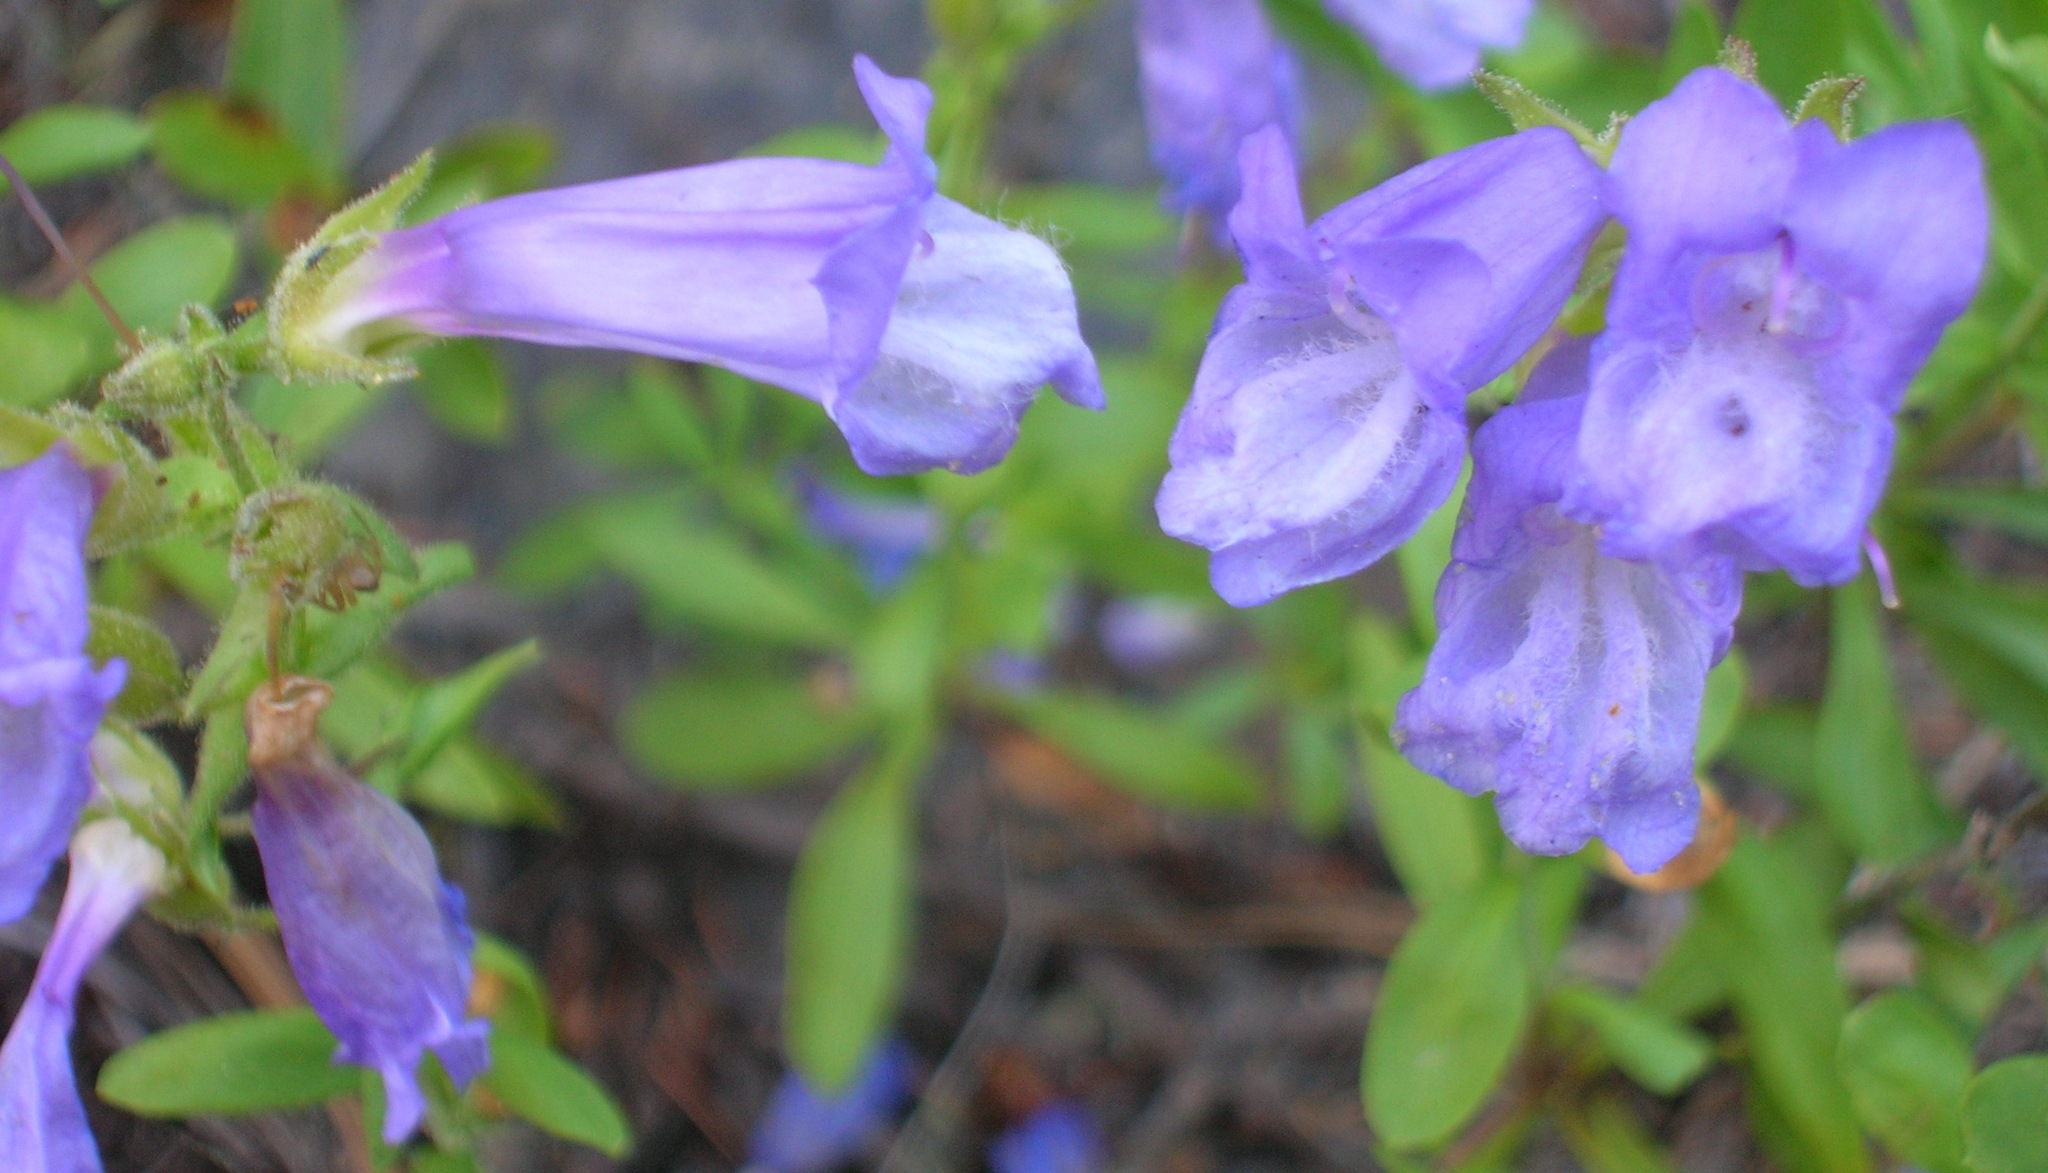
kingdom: Plantae
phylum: Tracheophyta
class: Magnoliopsida
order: Lamiales
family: Plantaginaceae
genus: Penstemon
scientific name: Penstemon fruticosus
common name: Bush penstemon
